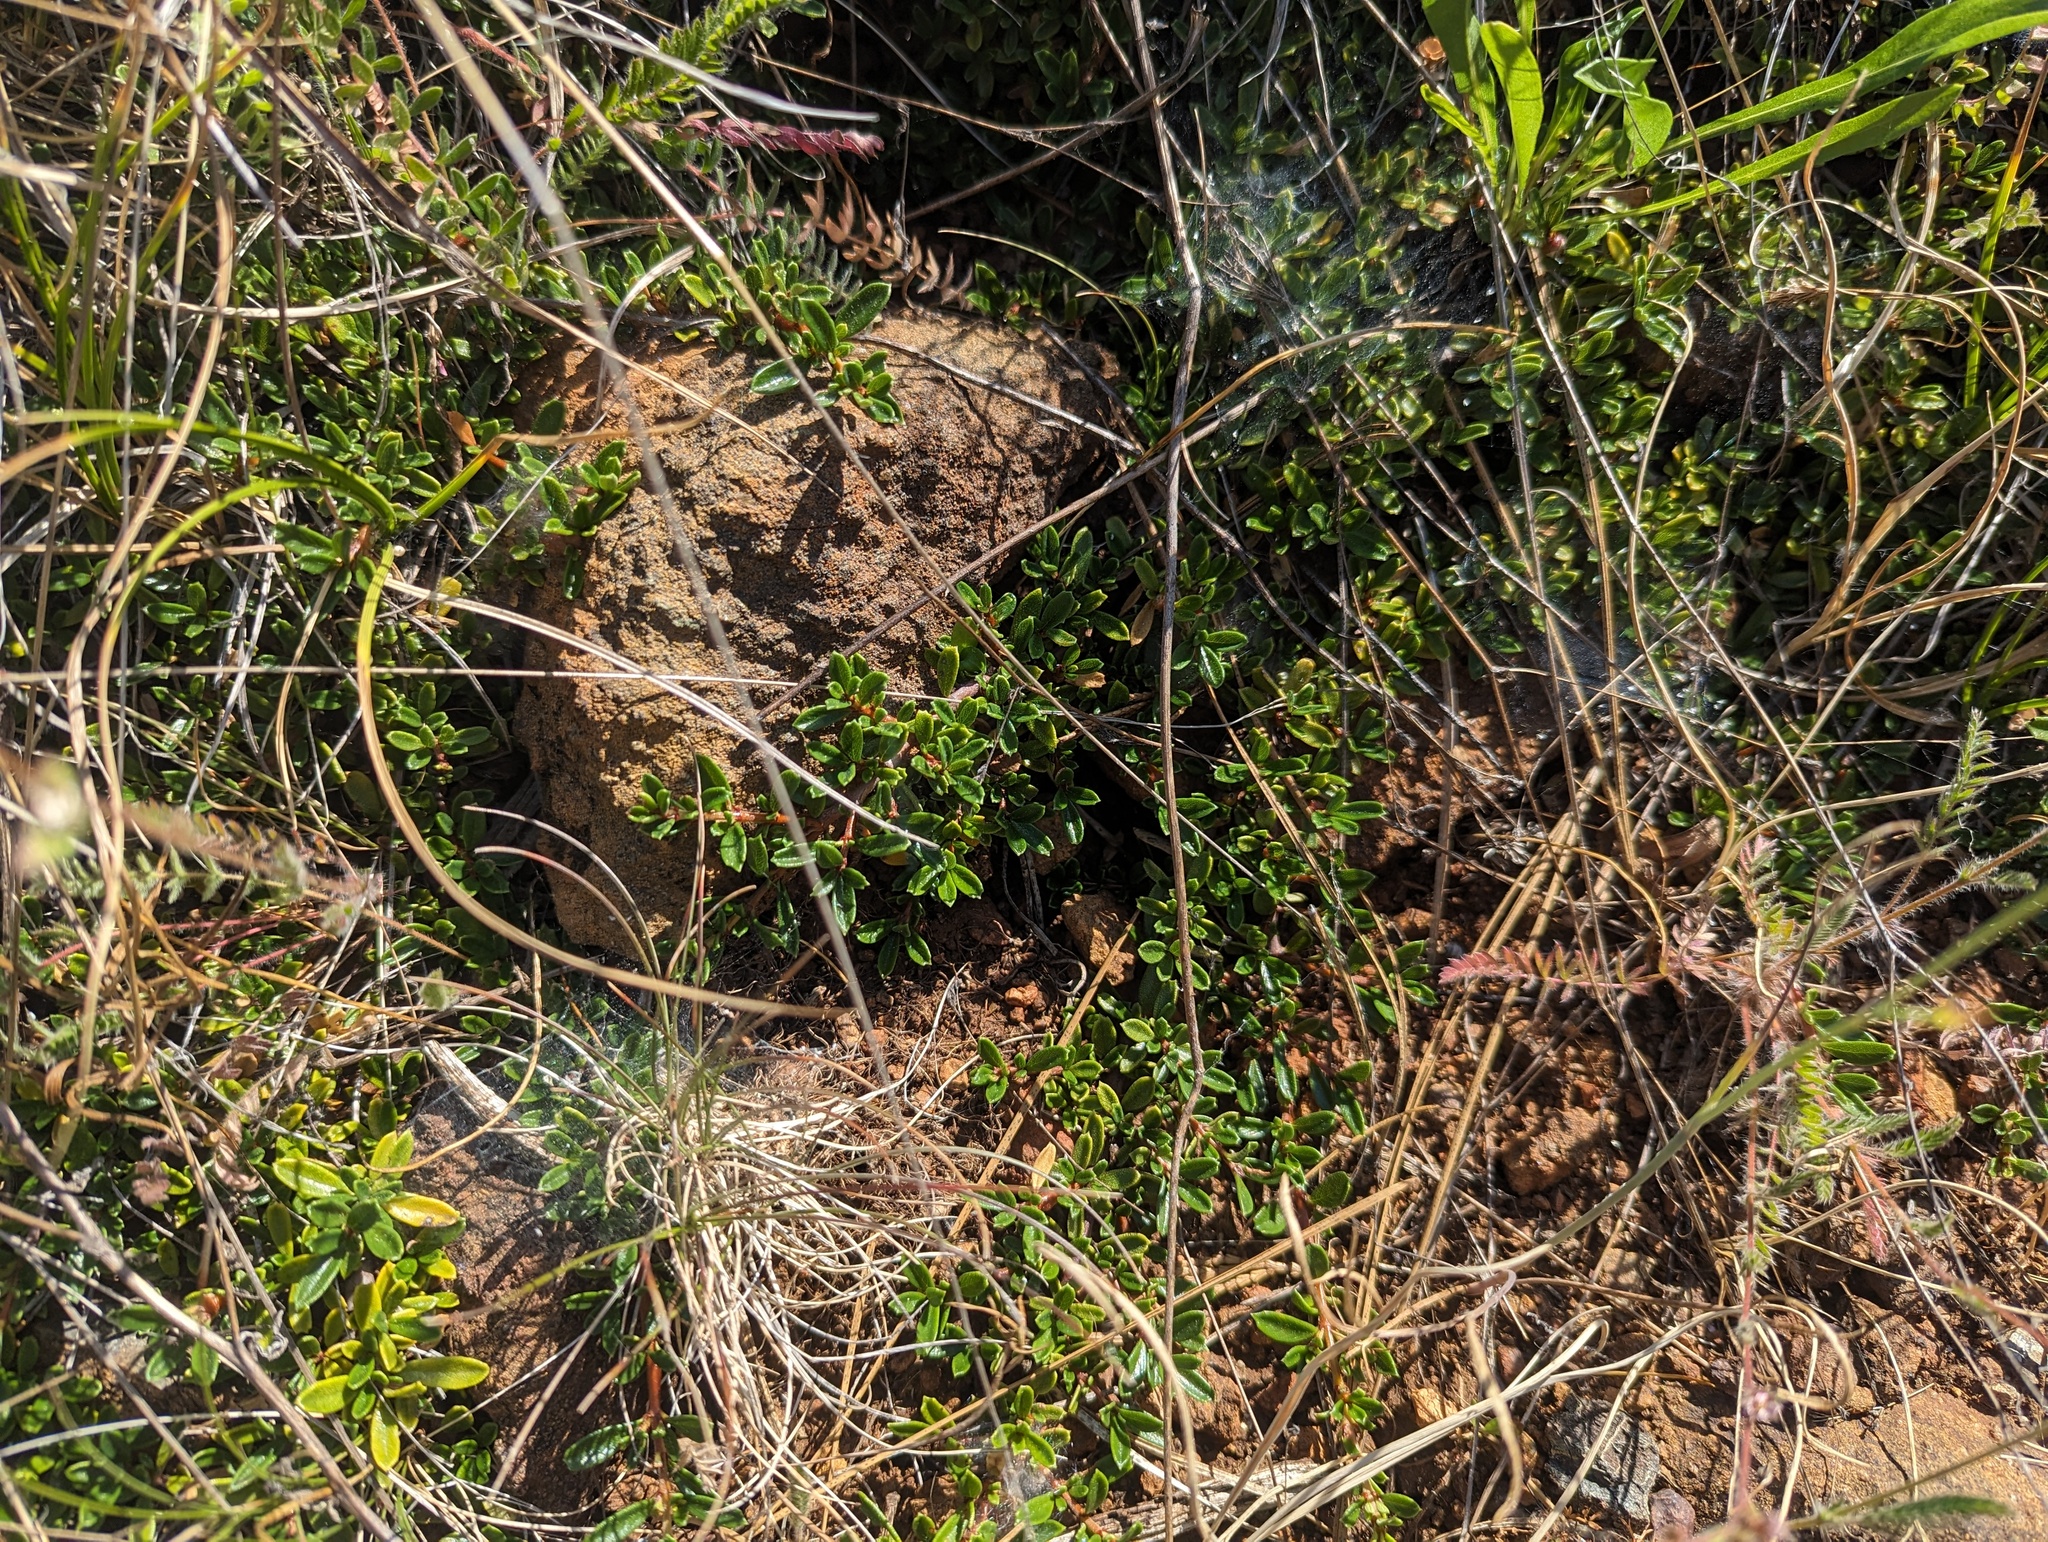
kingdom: Plantae
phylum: Tracheophyta
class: Magnoliopsida
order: Rosales
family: Rhamnaceae
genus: Ceanothus
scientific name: Ceanothus pumilus
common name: Siskiyou-mat
